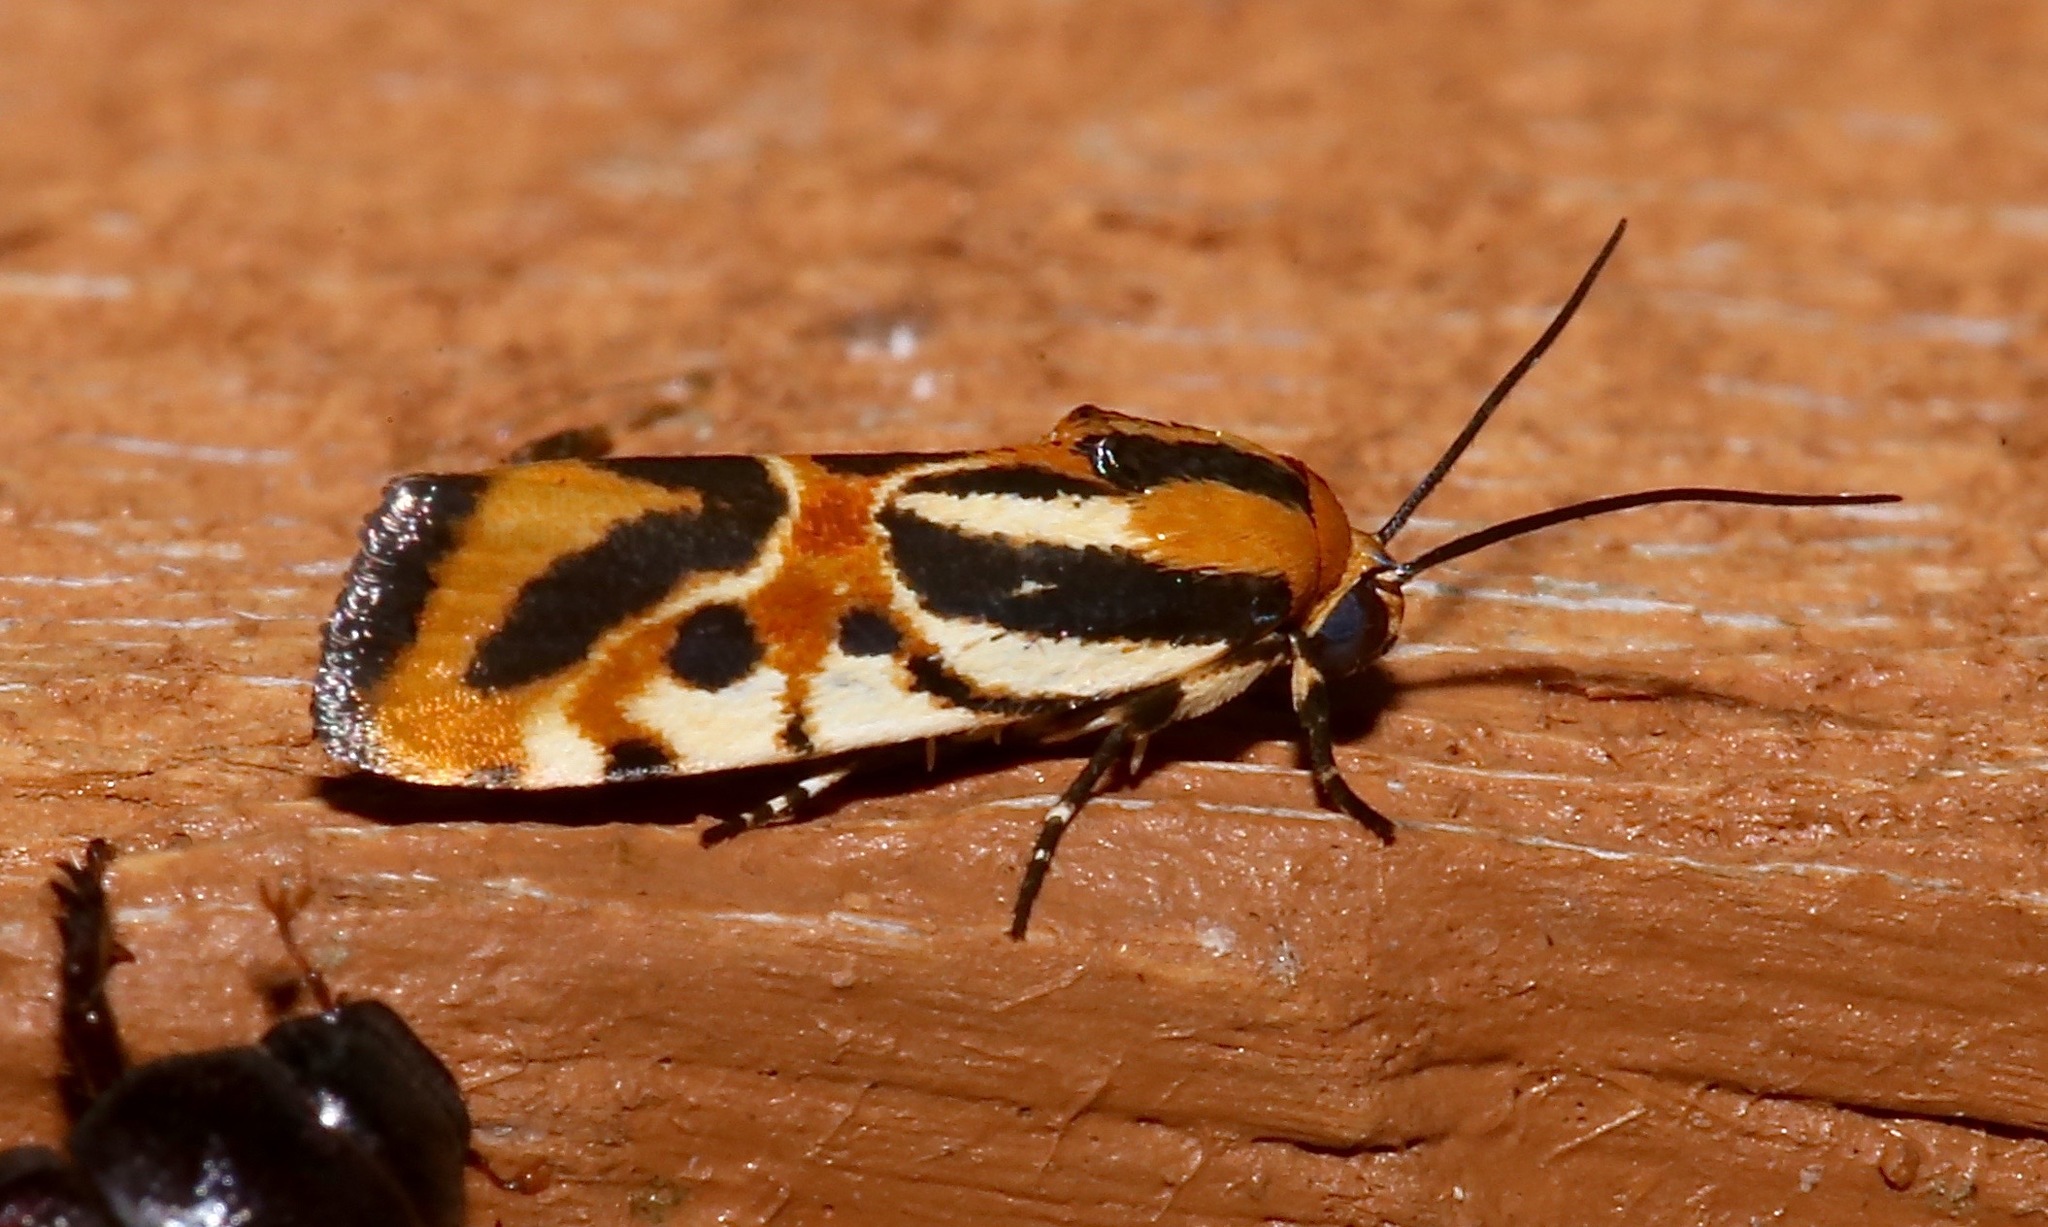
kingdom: Animalia
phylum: Arthropoda
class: Insecta
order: Lepidoptera
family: Noctuidae
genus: Acontia
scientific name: Acontia onagrus
